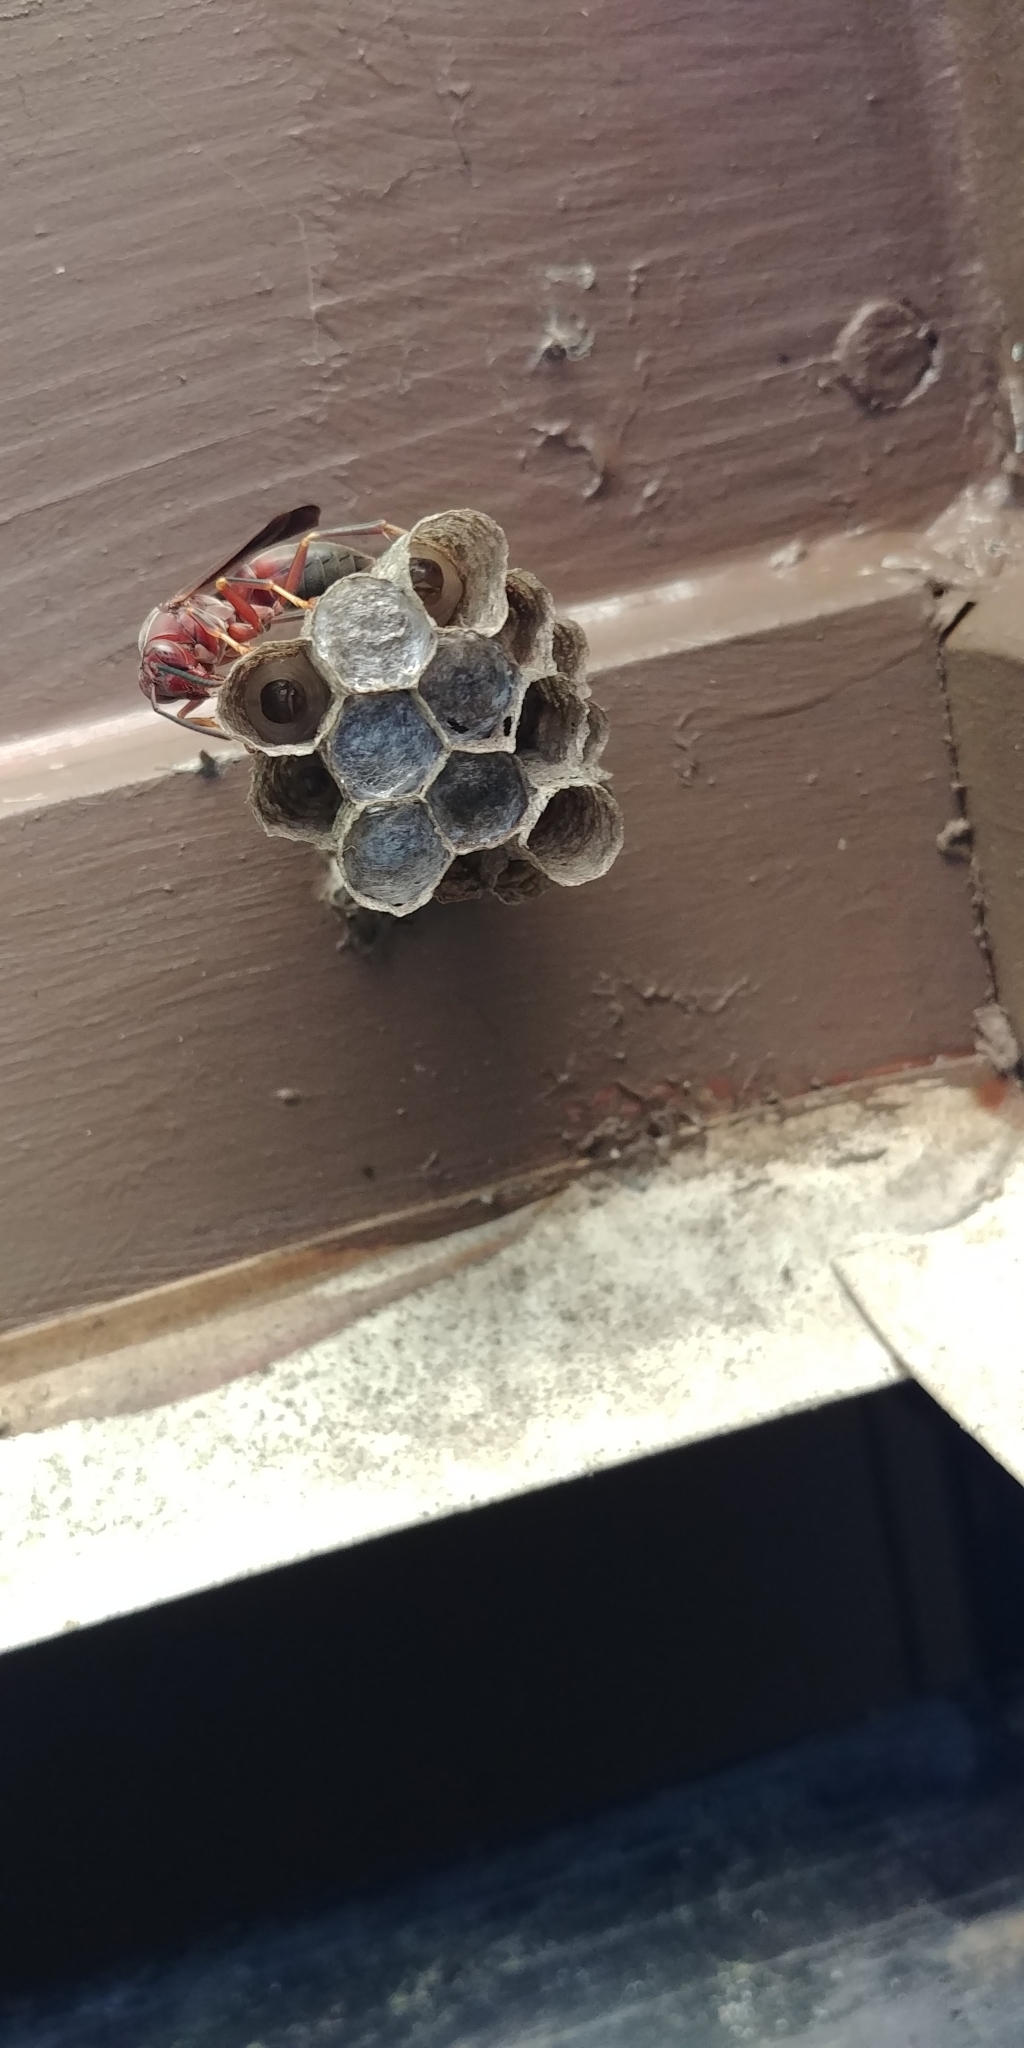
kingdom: Animalia
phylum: Arthropoda
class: Insecta
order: Hymenoptera
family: Eumenidae
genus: Polistes
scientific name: Polistes metricus
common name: Metric paper wasp
